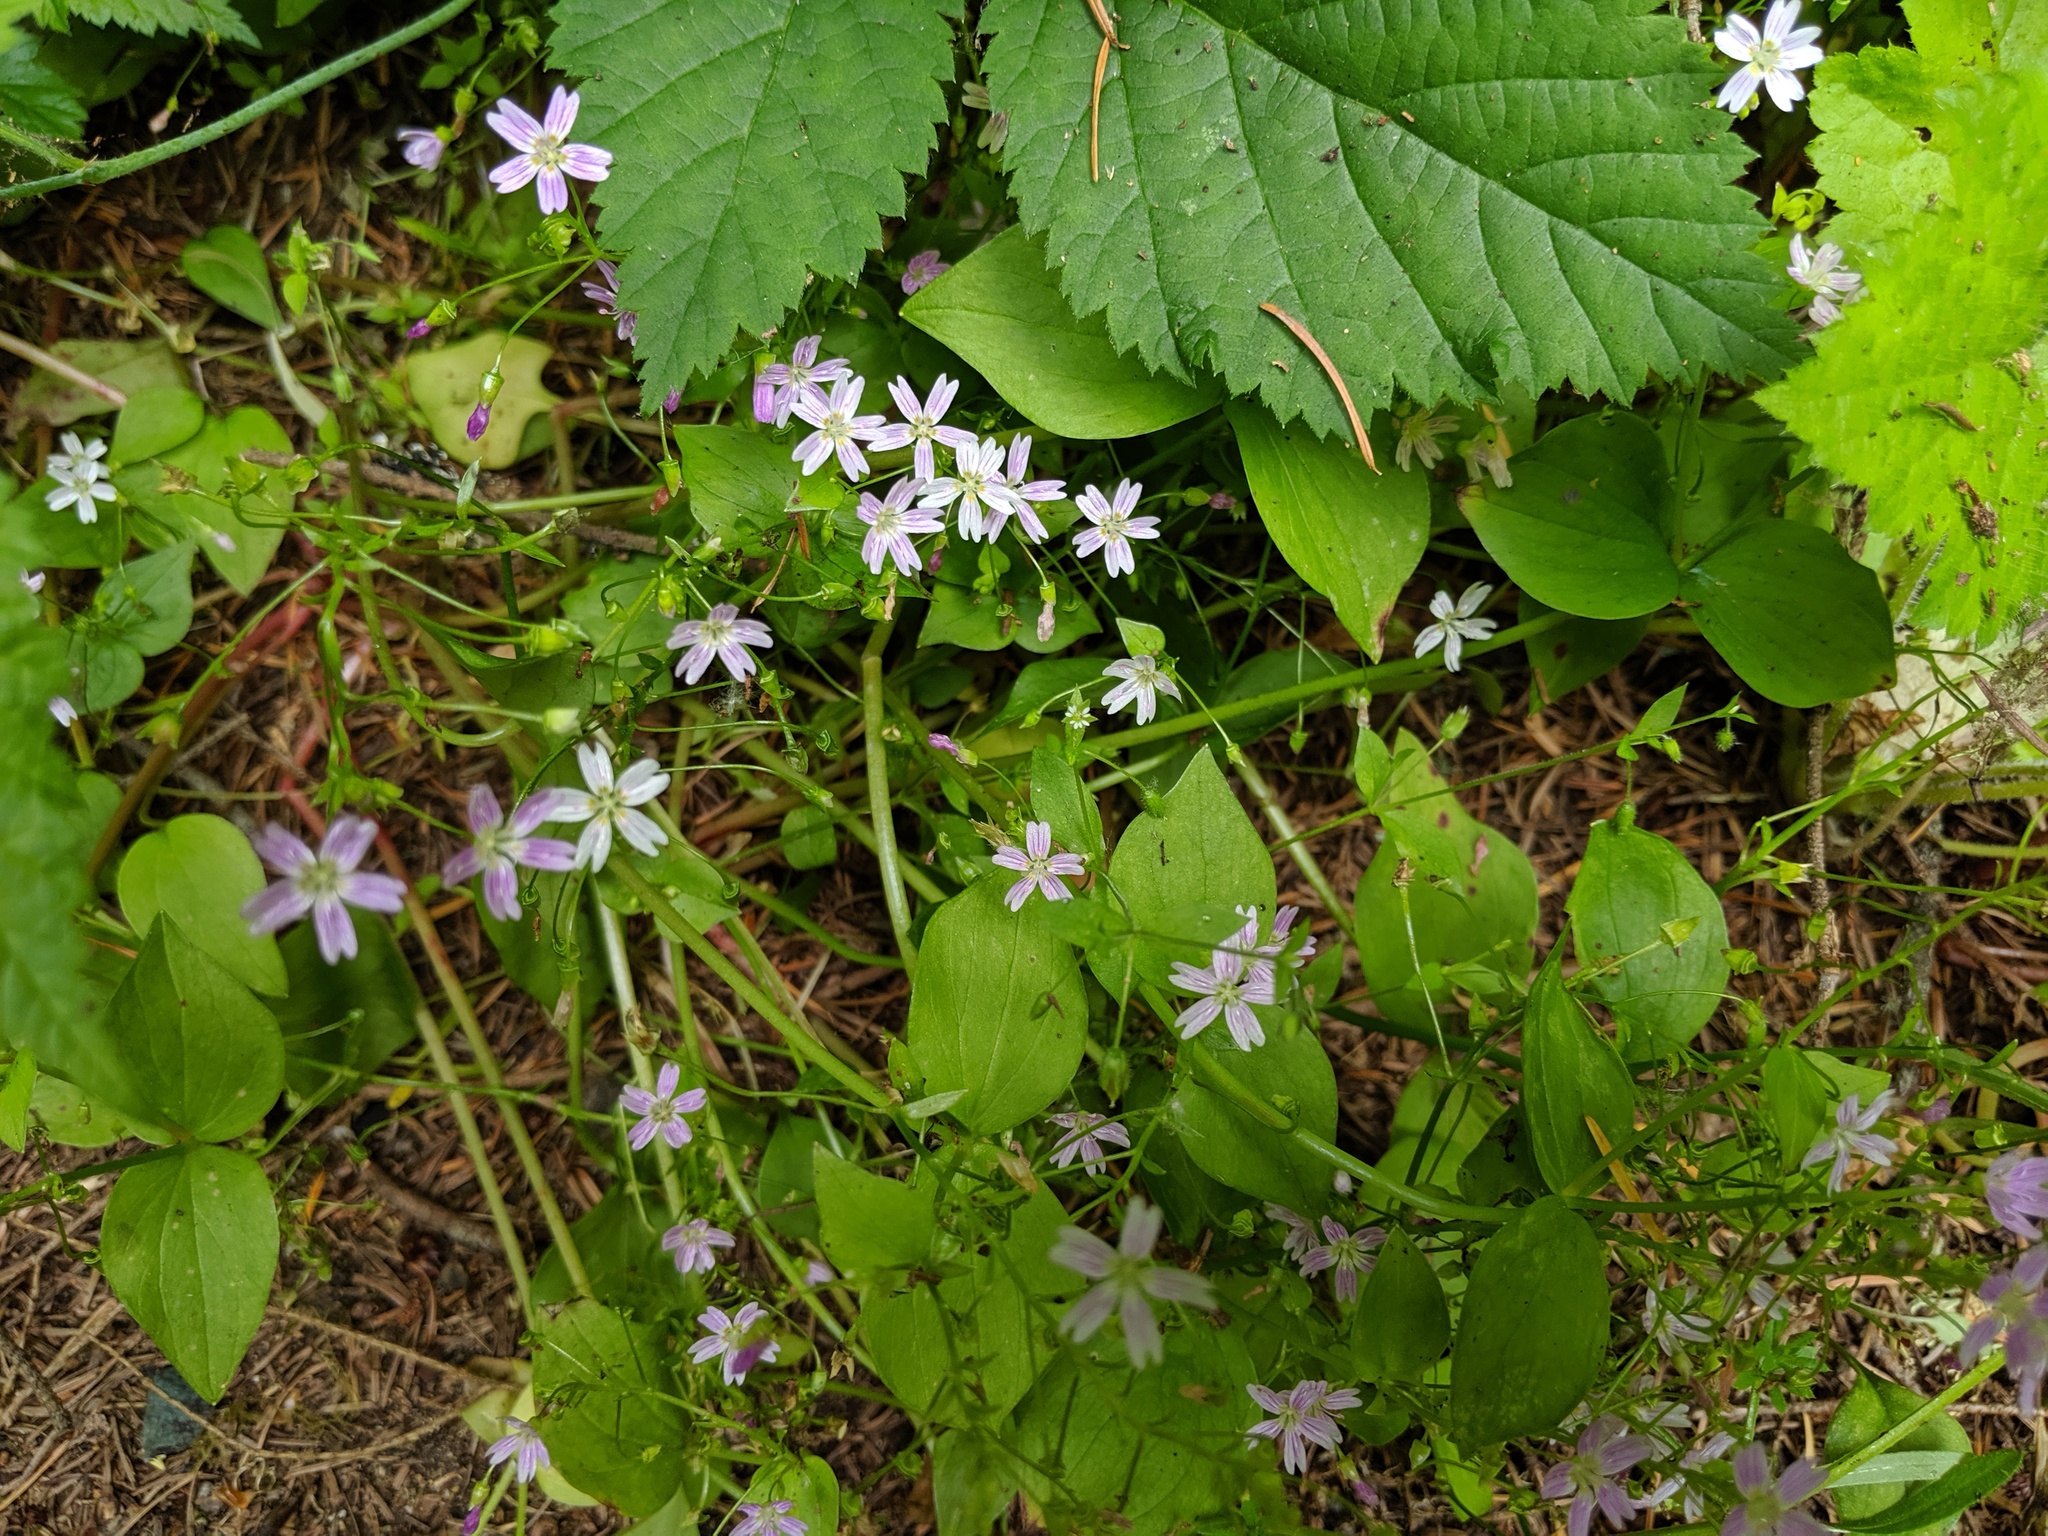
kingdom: Plantae
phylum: Tracheophyta
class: Magnoliopsida
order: Caryophyllales
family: Montiaceae
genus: Claytonia
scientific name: Claytonia sibirica
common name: Pink purslane
